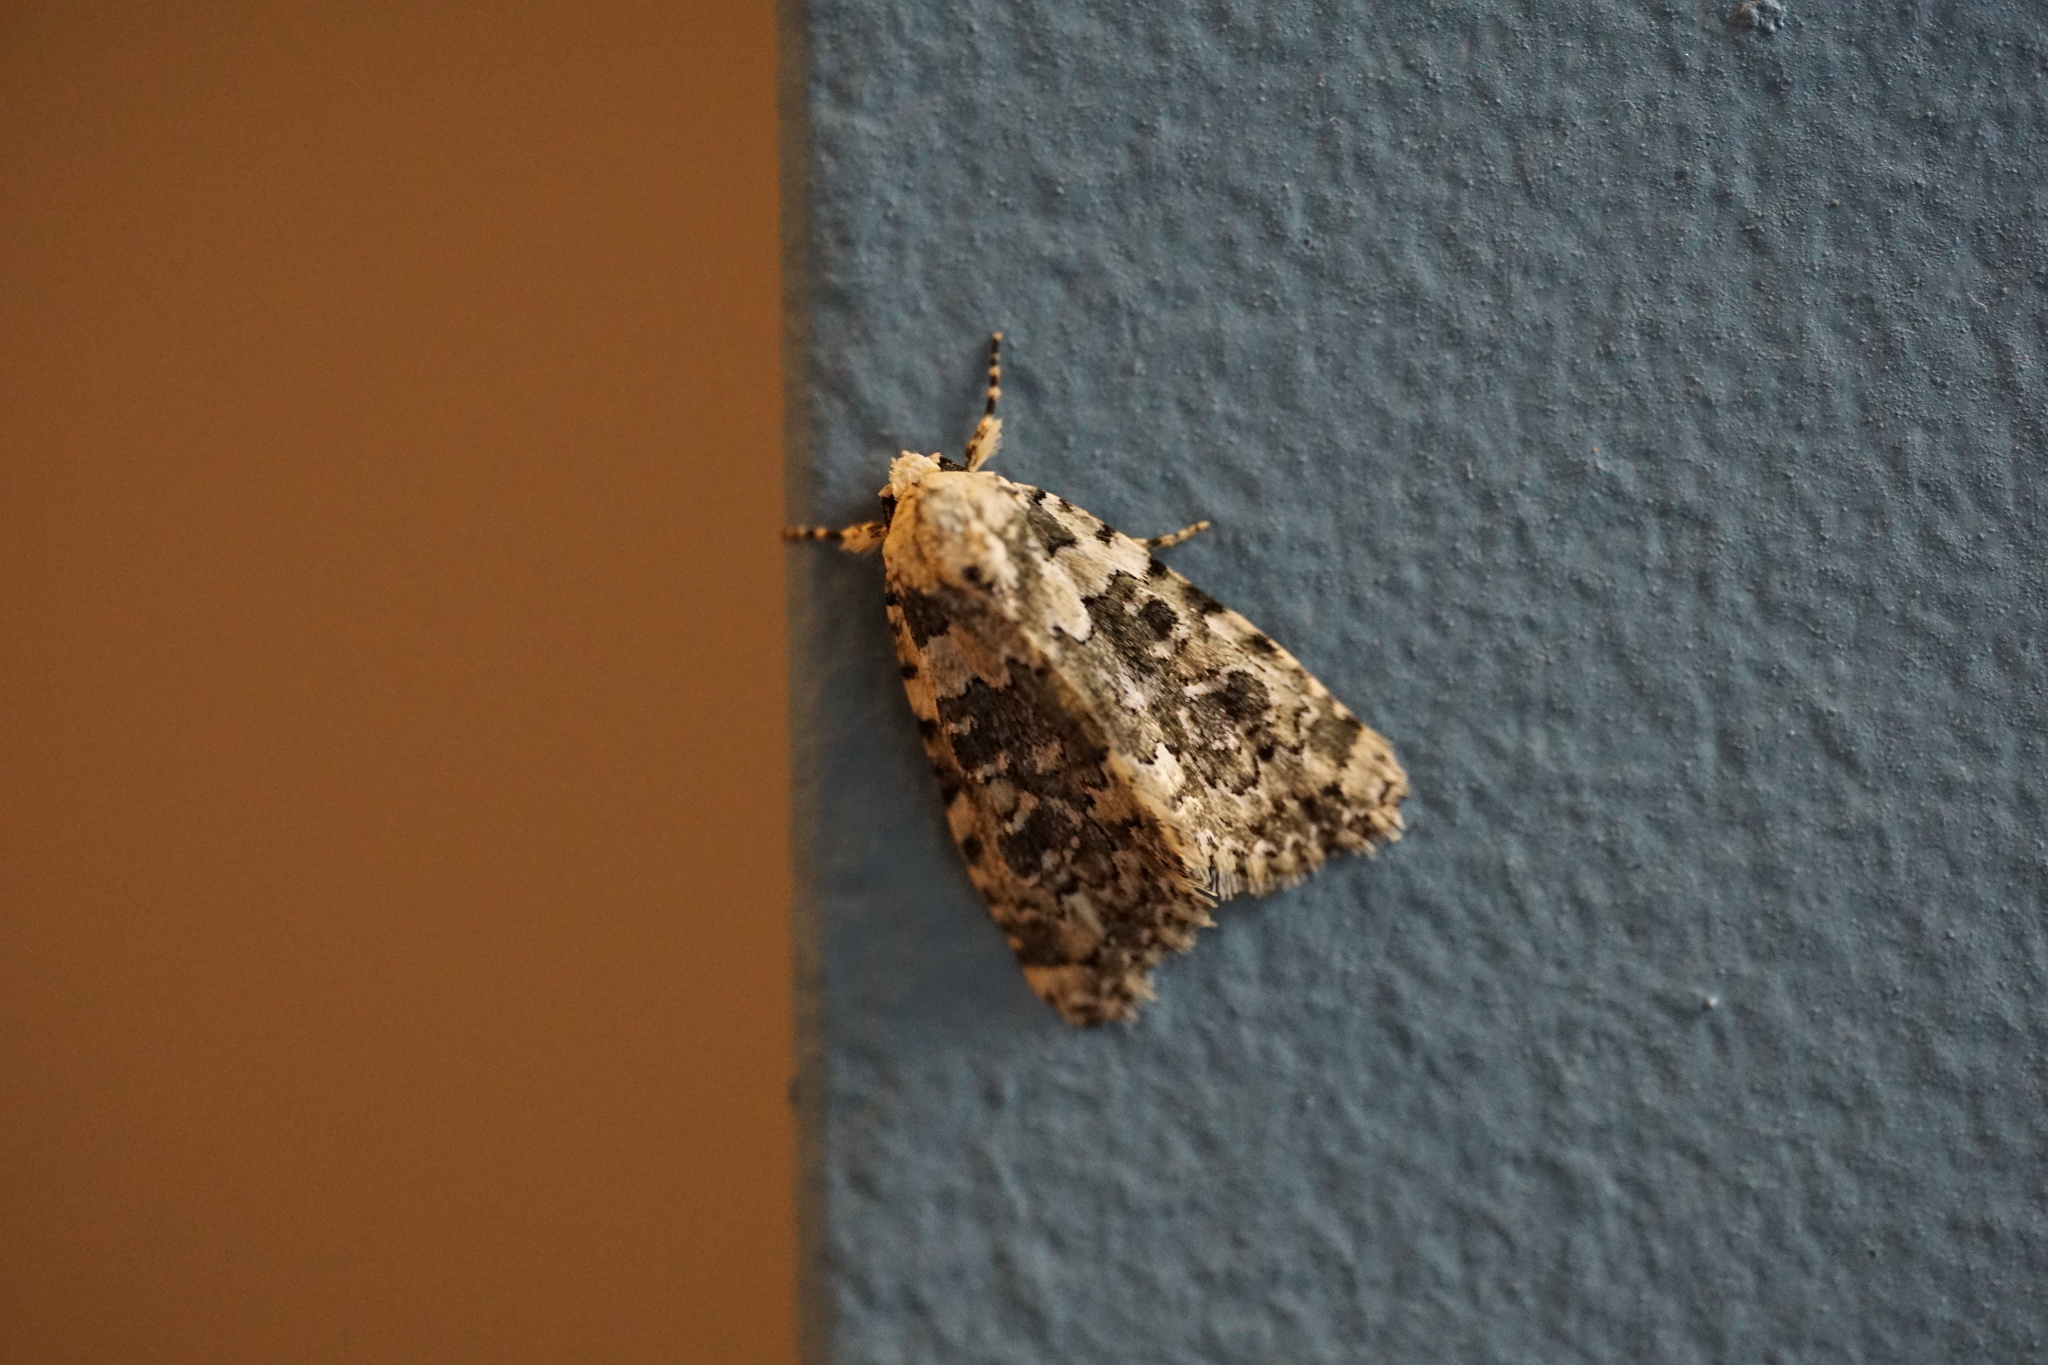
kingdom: Animalia
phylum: Arthropoda
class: Insecta
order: Lepidoptera
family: Noctuidae
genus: Bryophila
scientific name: Bryophila domestica
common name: Marbled beauty
